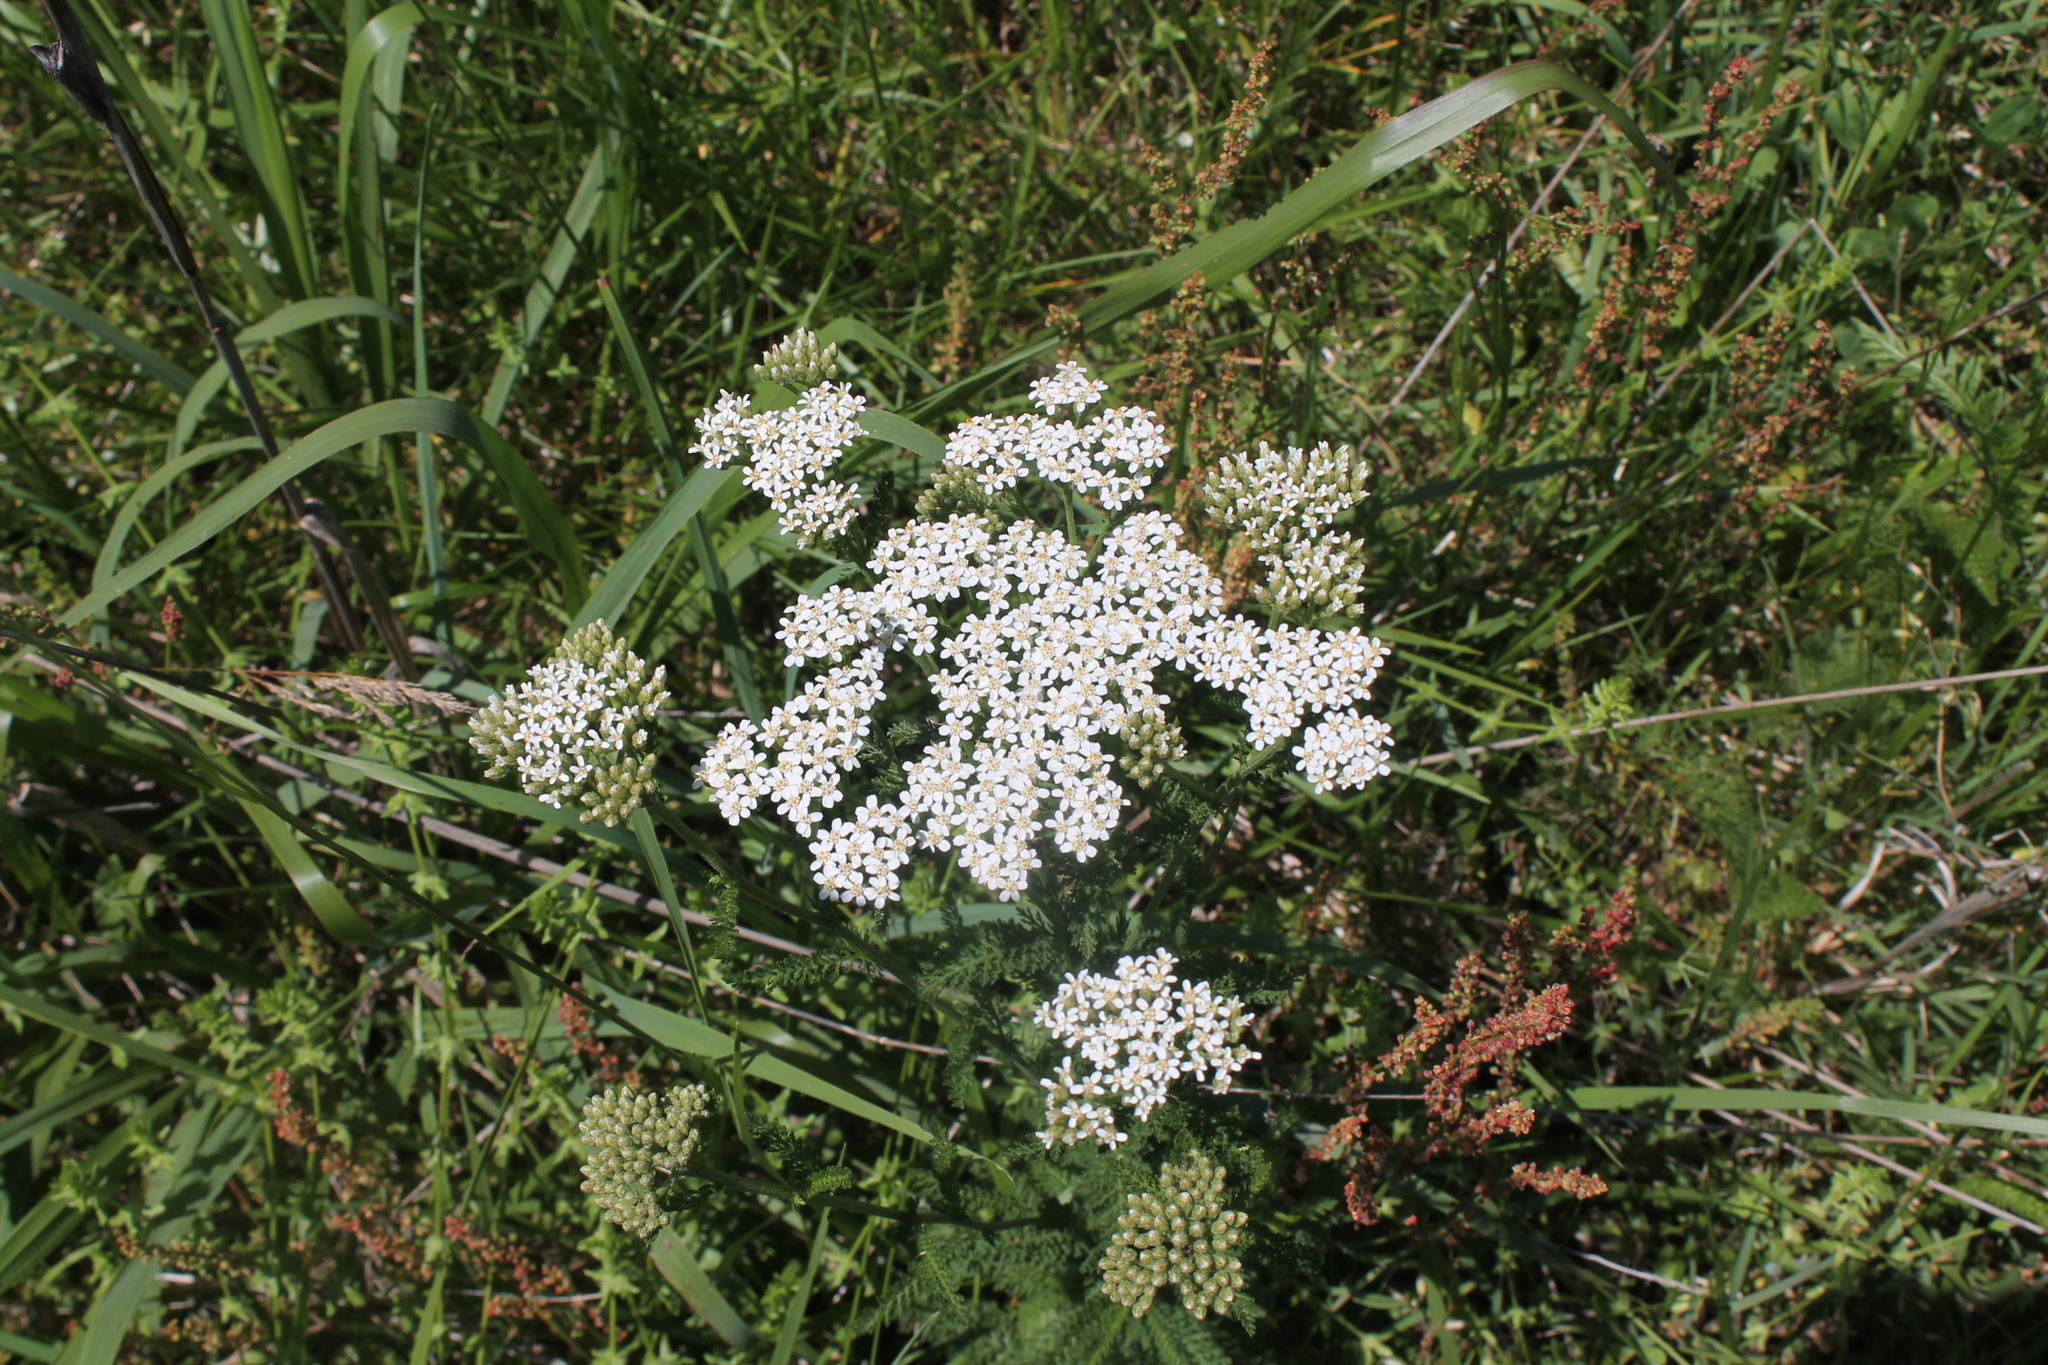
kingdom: Plantae
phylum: Tracheophyta
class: Magnoliopsida
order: Asterales
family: Asteraceae
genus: Achillea
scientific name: Achillea millefolium
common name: Yarrow
